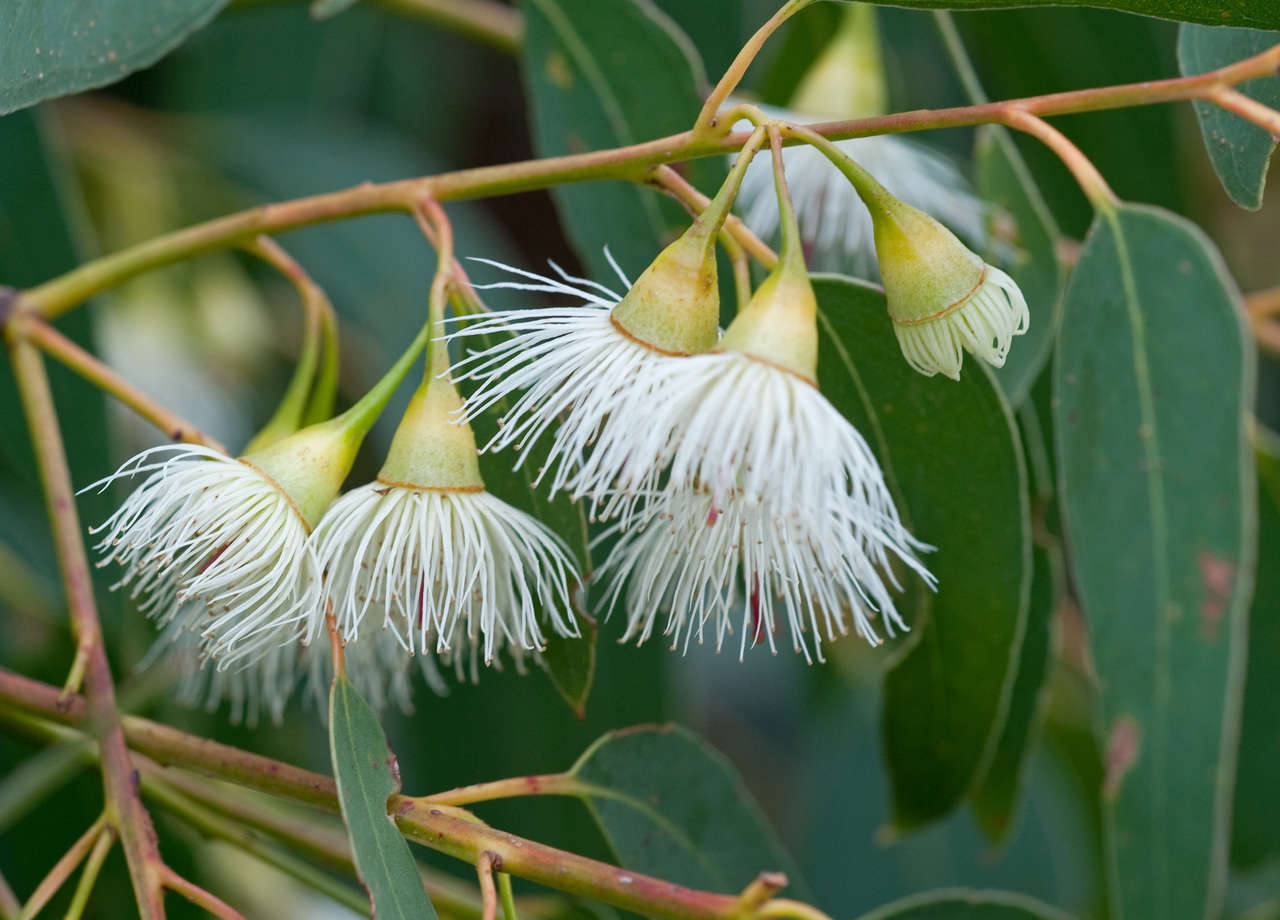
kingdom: Plantae
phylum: Tracheophyta
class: Magnoliopsida
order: Myrtales
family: Myrtaceae
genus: Eucalyptus
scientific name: Eucalyptus tricarpa
